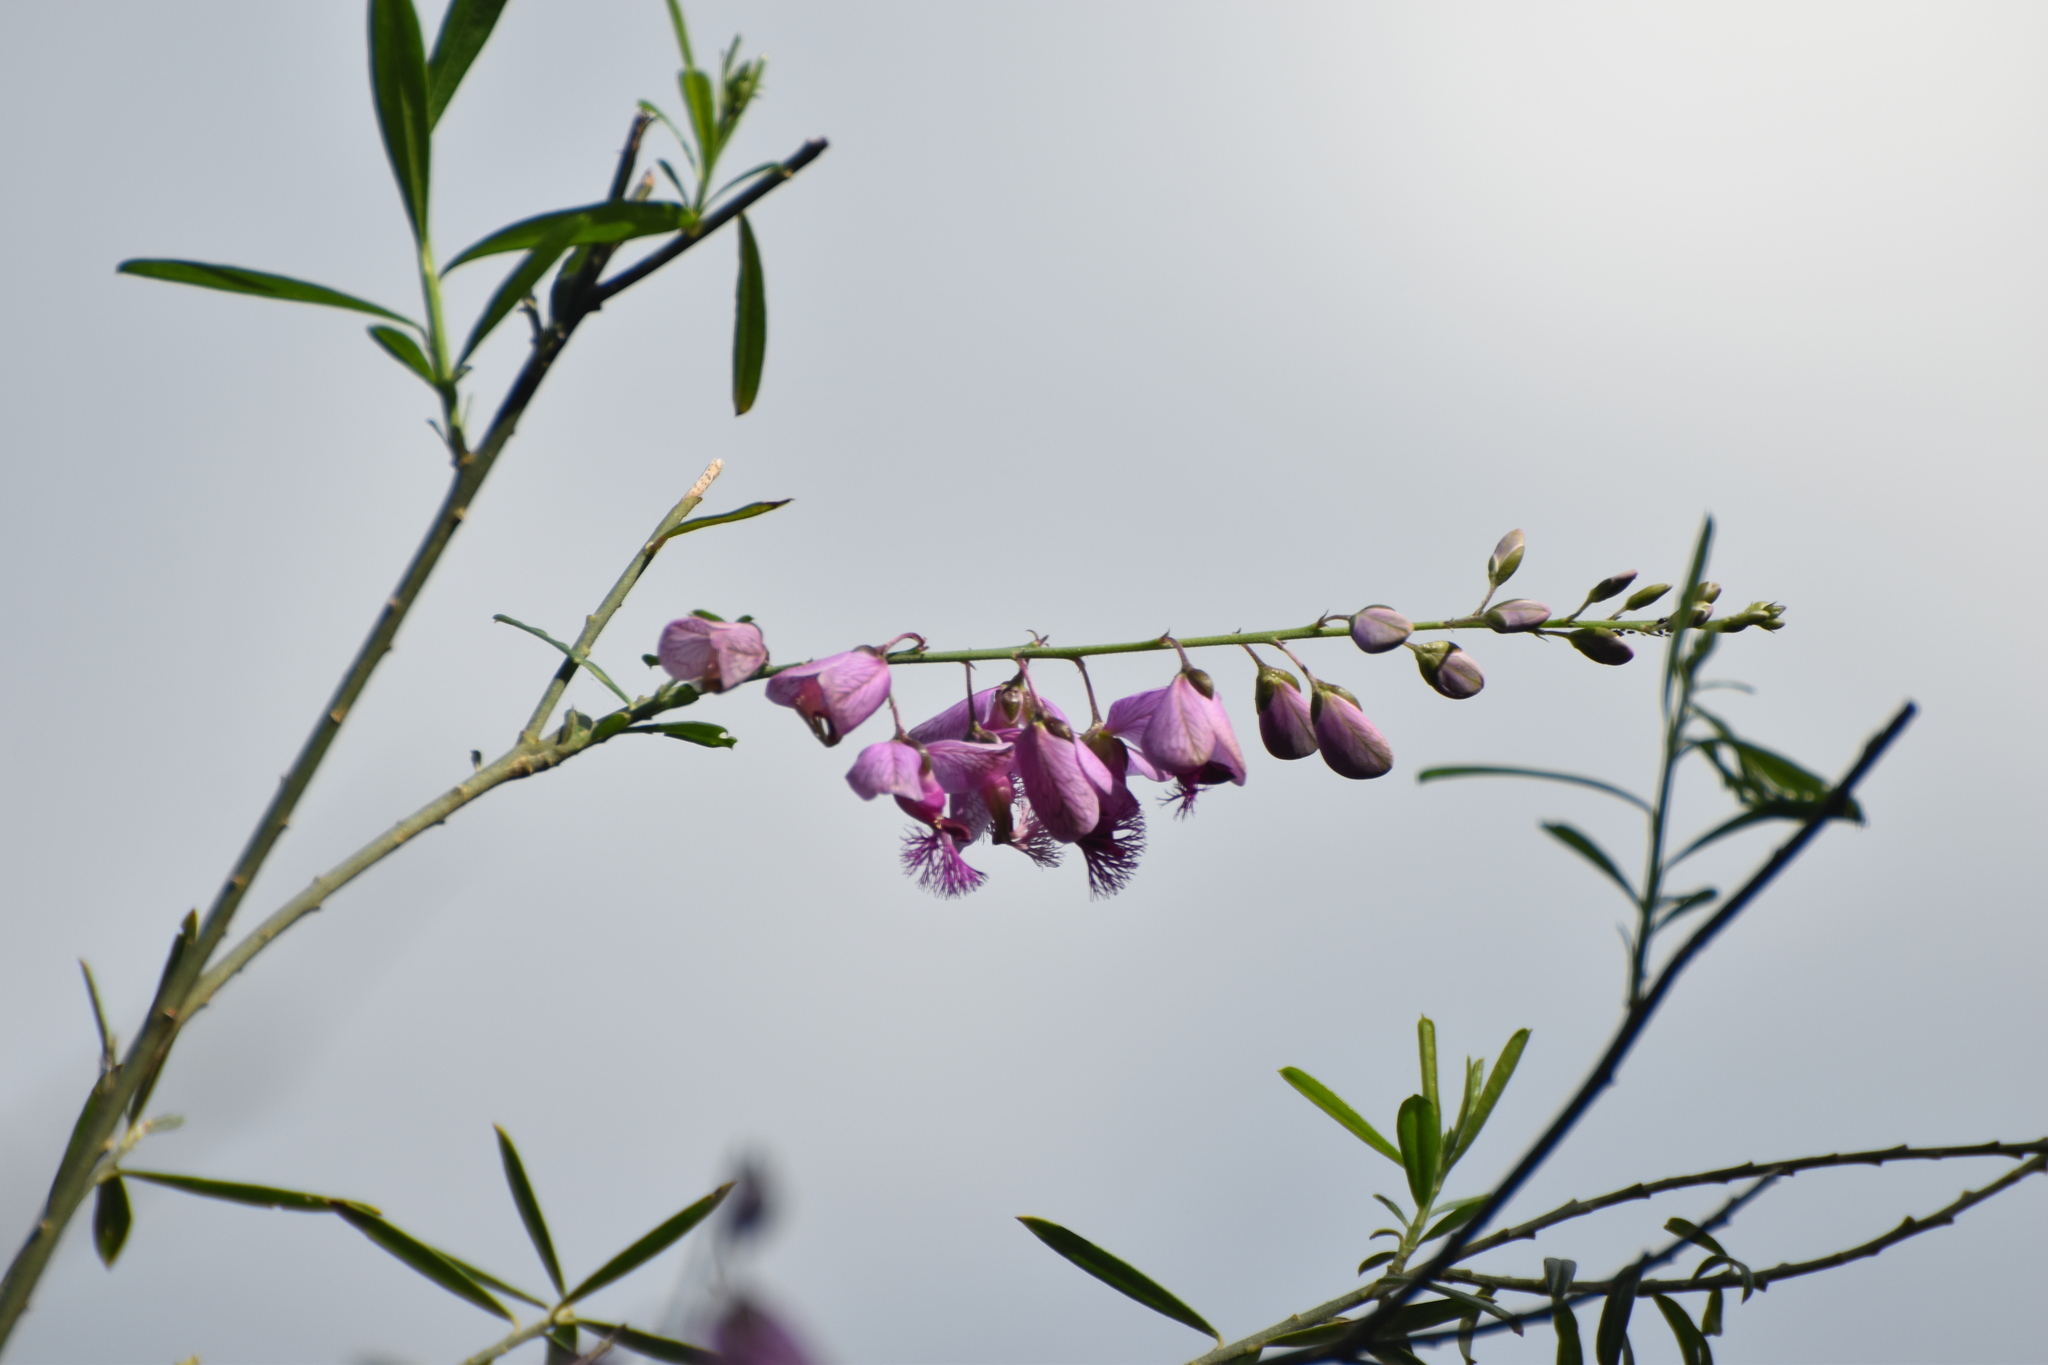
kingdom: Plantae
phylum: Tracheophyta
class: Magnoliopsida
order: Fabales
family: Polygalaceae
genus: Polygala
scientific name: Polygala virgata
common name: Milkwort
